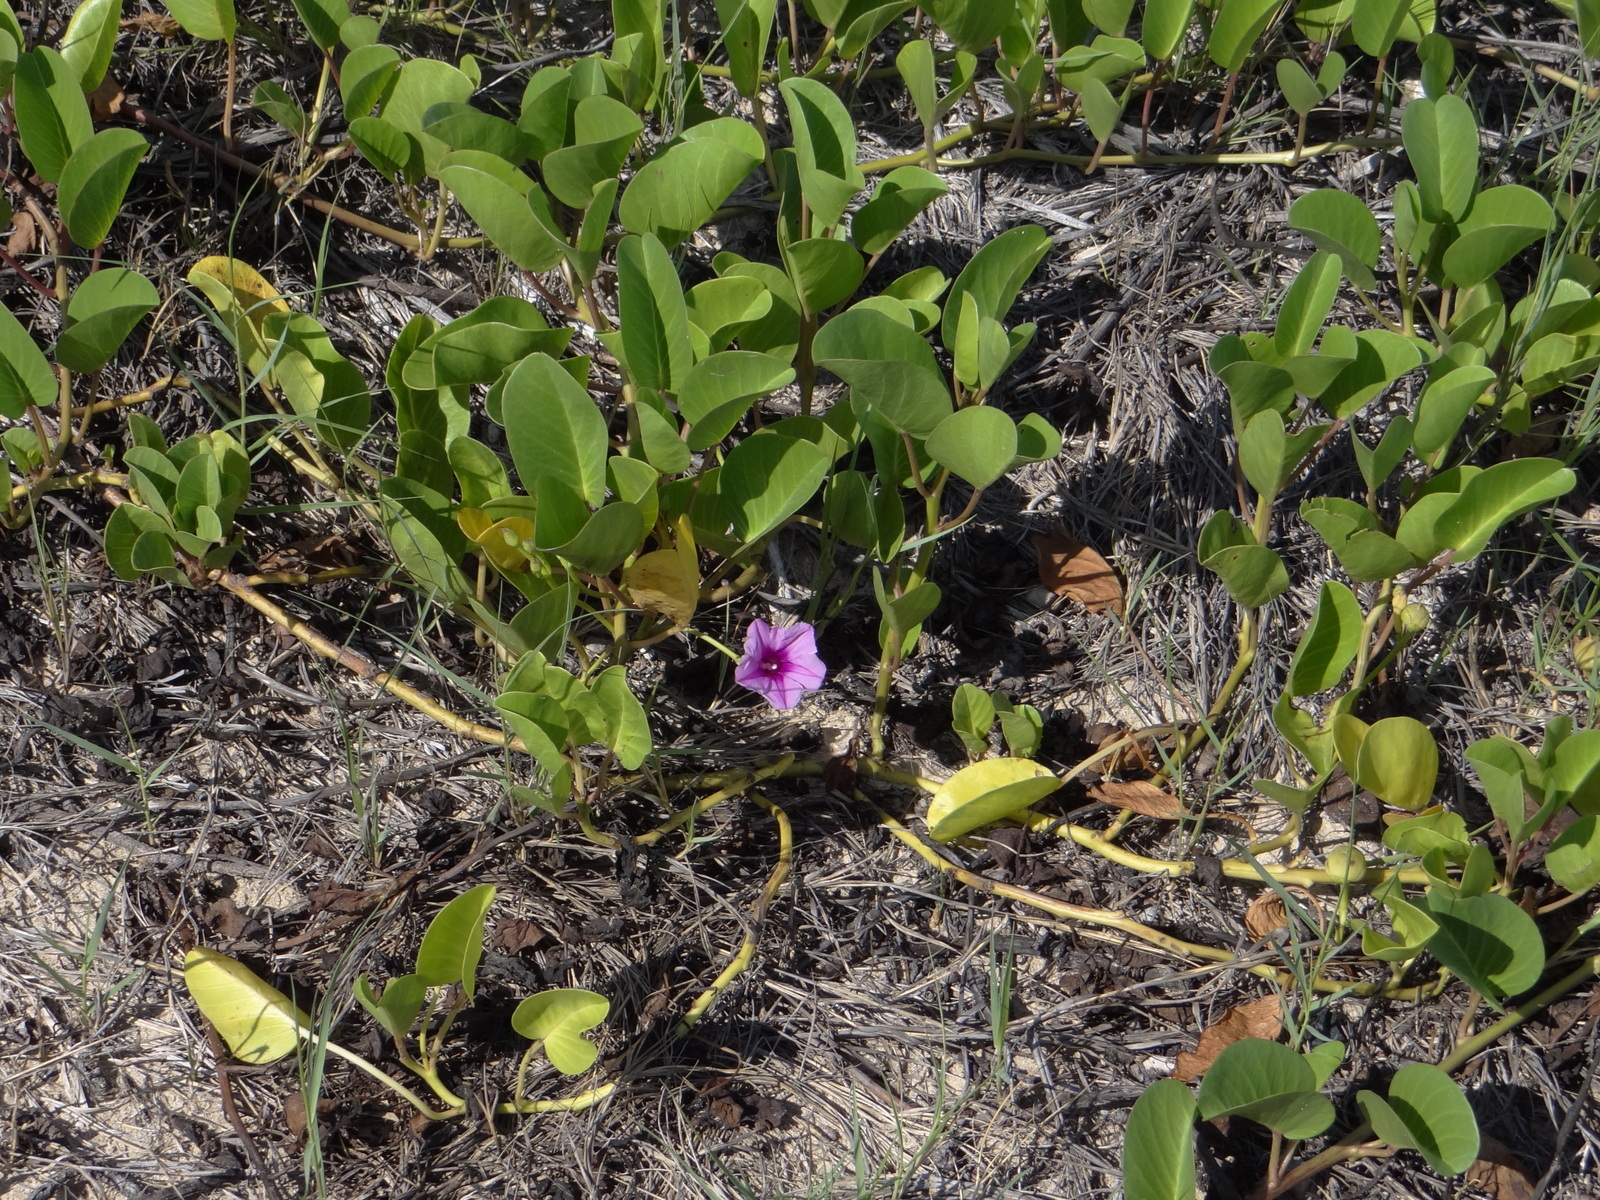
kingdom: Plantae
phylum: Tracheophyta
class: Magnoliopsida
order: Solanales
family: Convolvulaceae
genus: Ipomoea
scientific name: Ipomoea pes-caprae
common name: Beach morning glory
